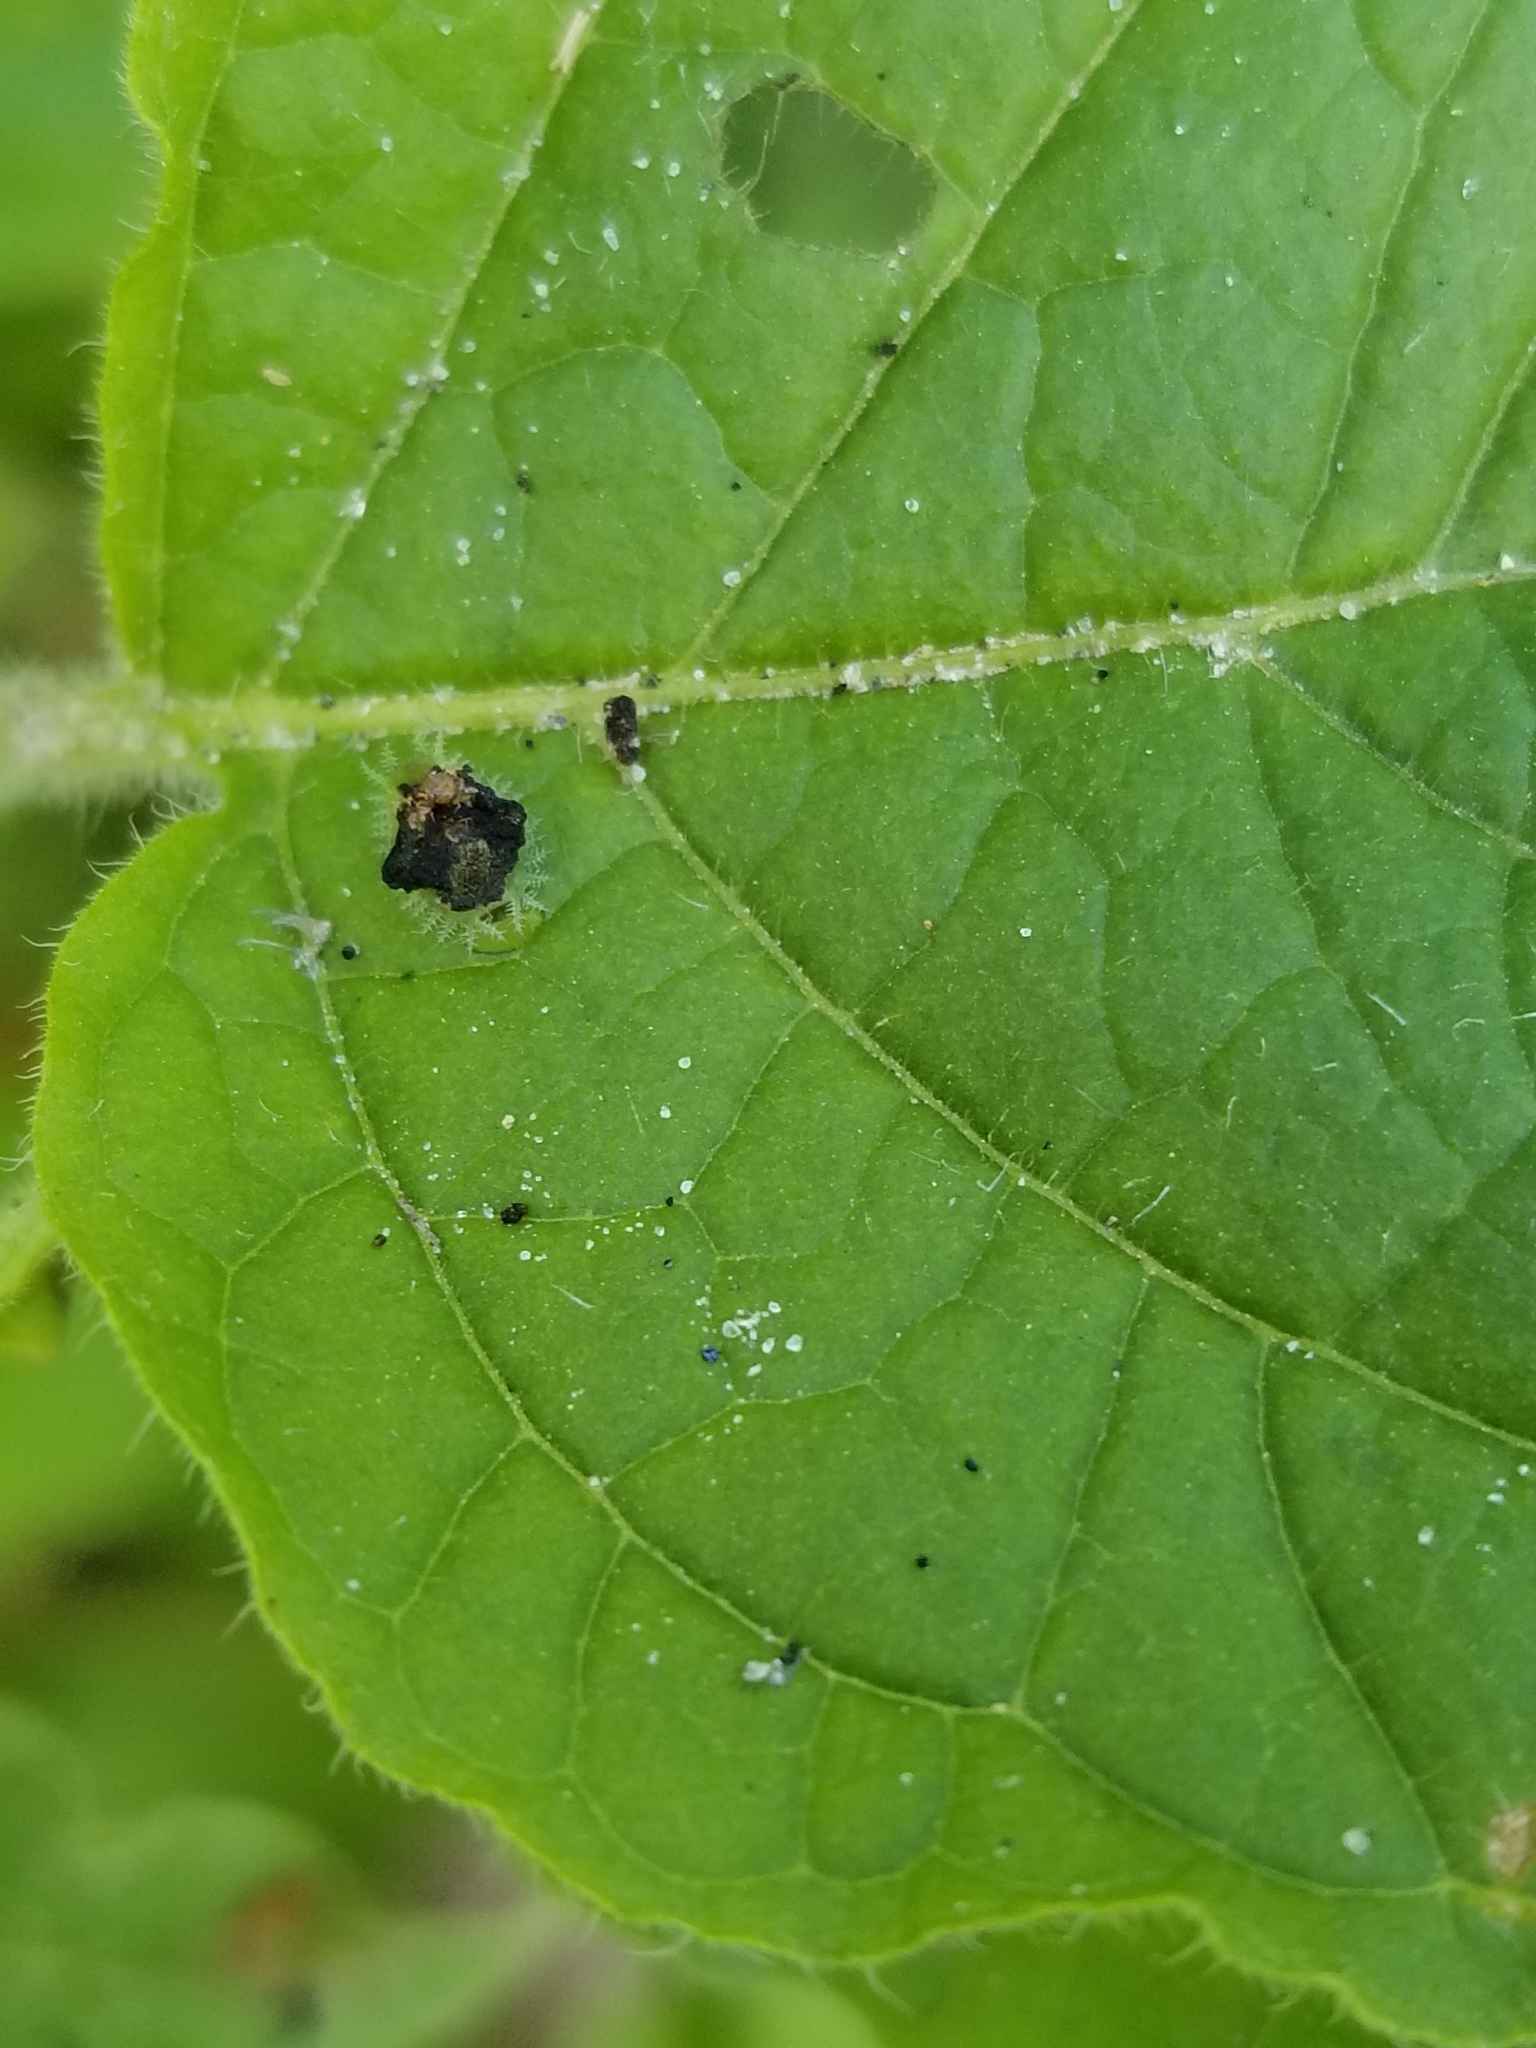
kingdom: Animalia
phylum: Arthropoda
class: Insecta
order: Coleoptera
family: Chrysomelidae
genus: Helocassis
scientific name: Helocassis clavata
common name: Clavate tortoise beetle
